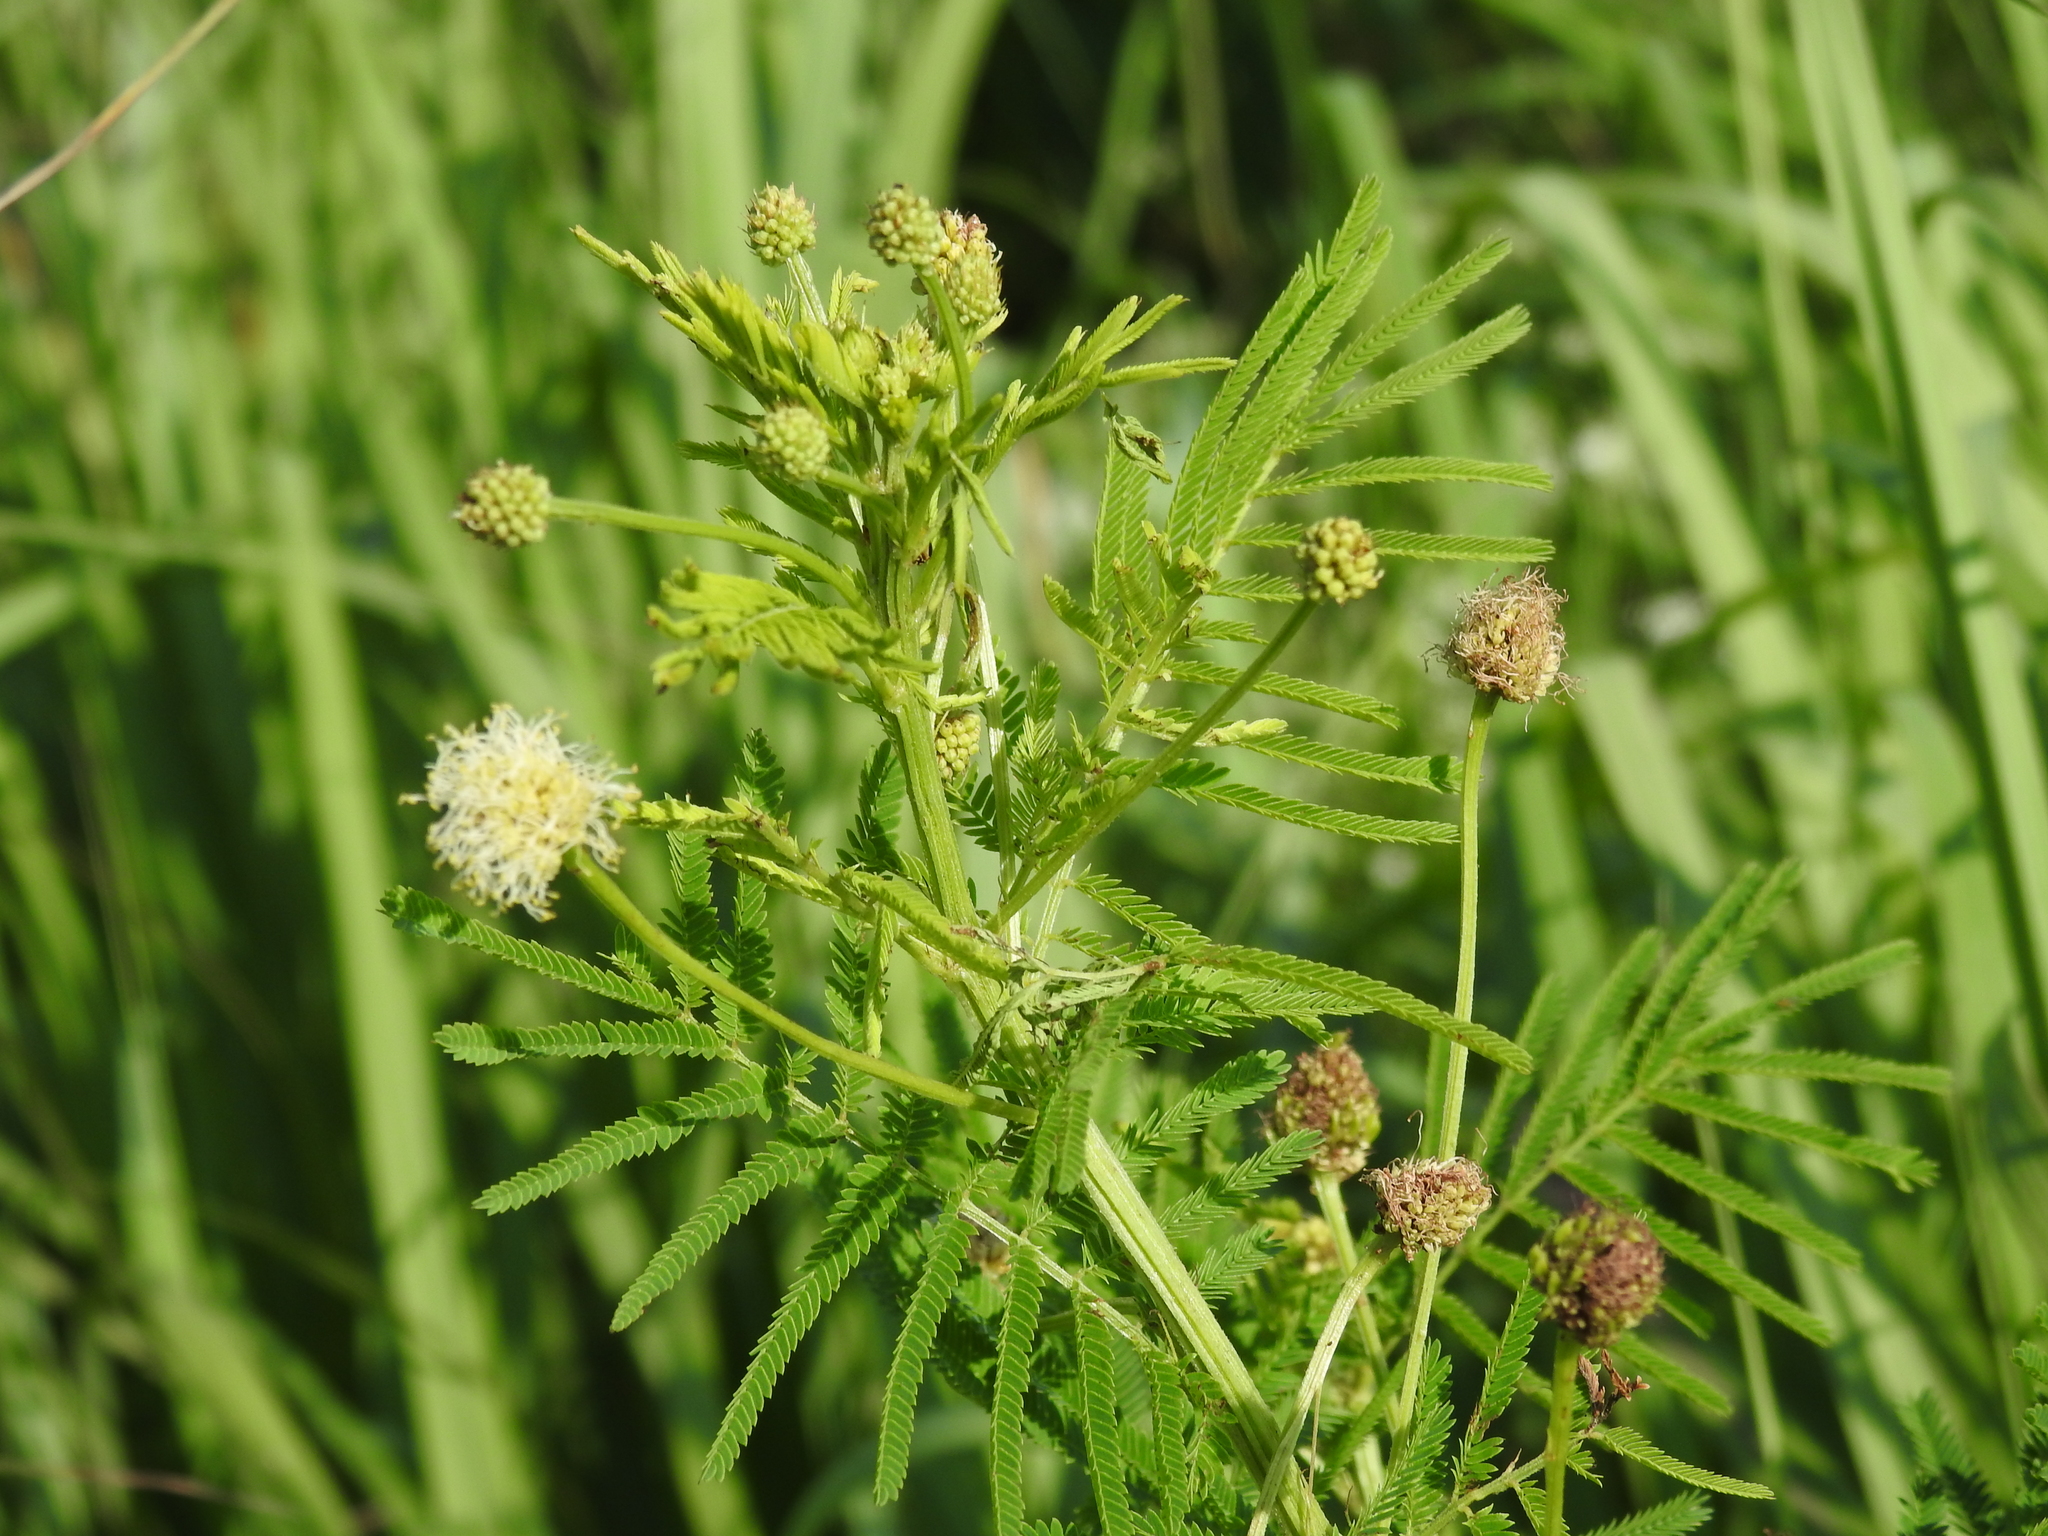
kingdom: Plantae
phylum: Tracheophyta
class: Magnoliopsida
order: Fabales
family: Fabaceae
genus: Desmanthus
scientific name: Desmanthus illinoensis
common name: Illinois bundle-flower
